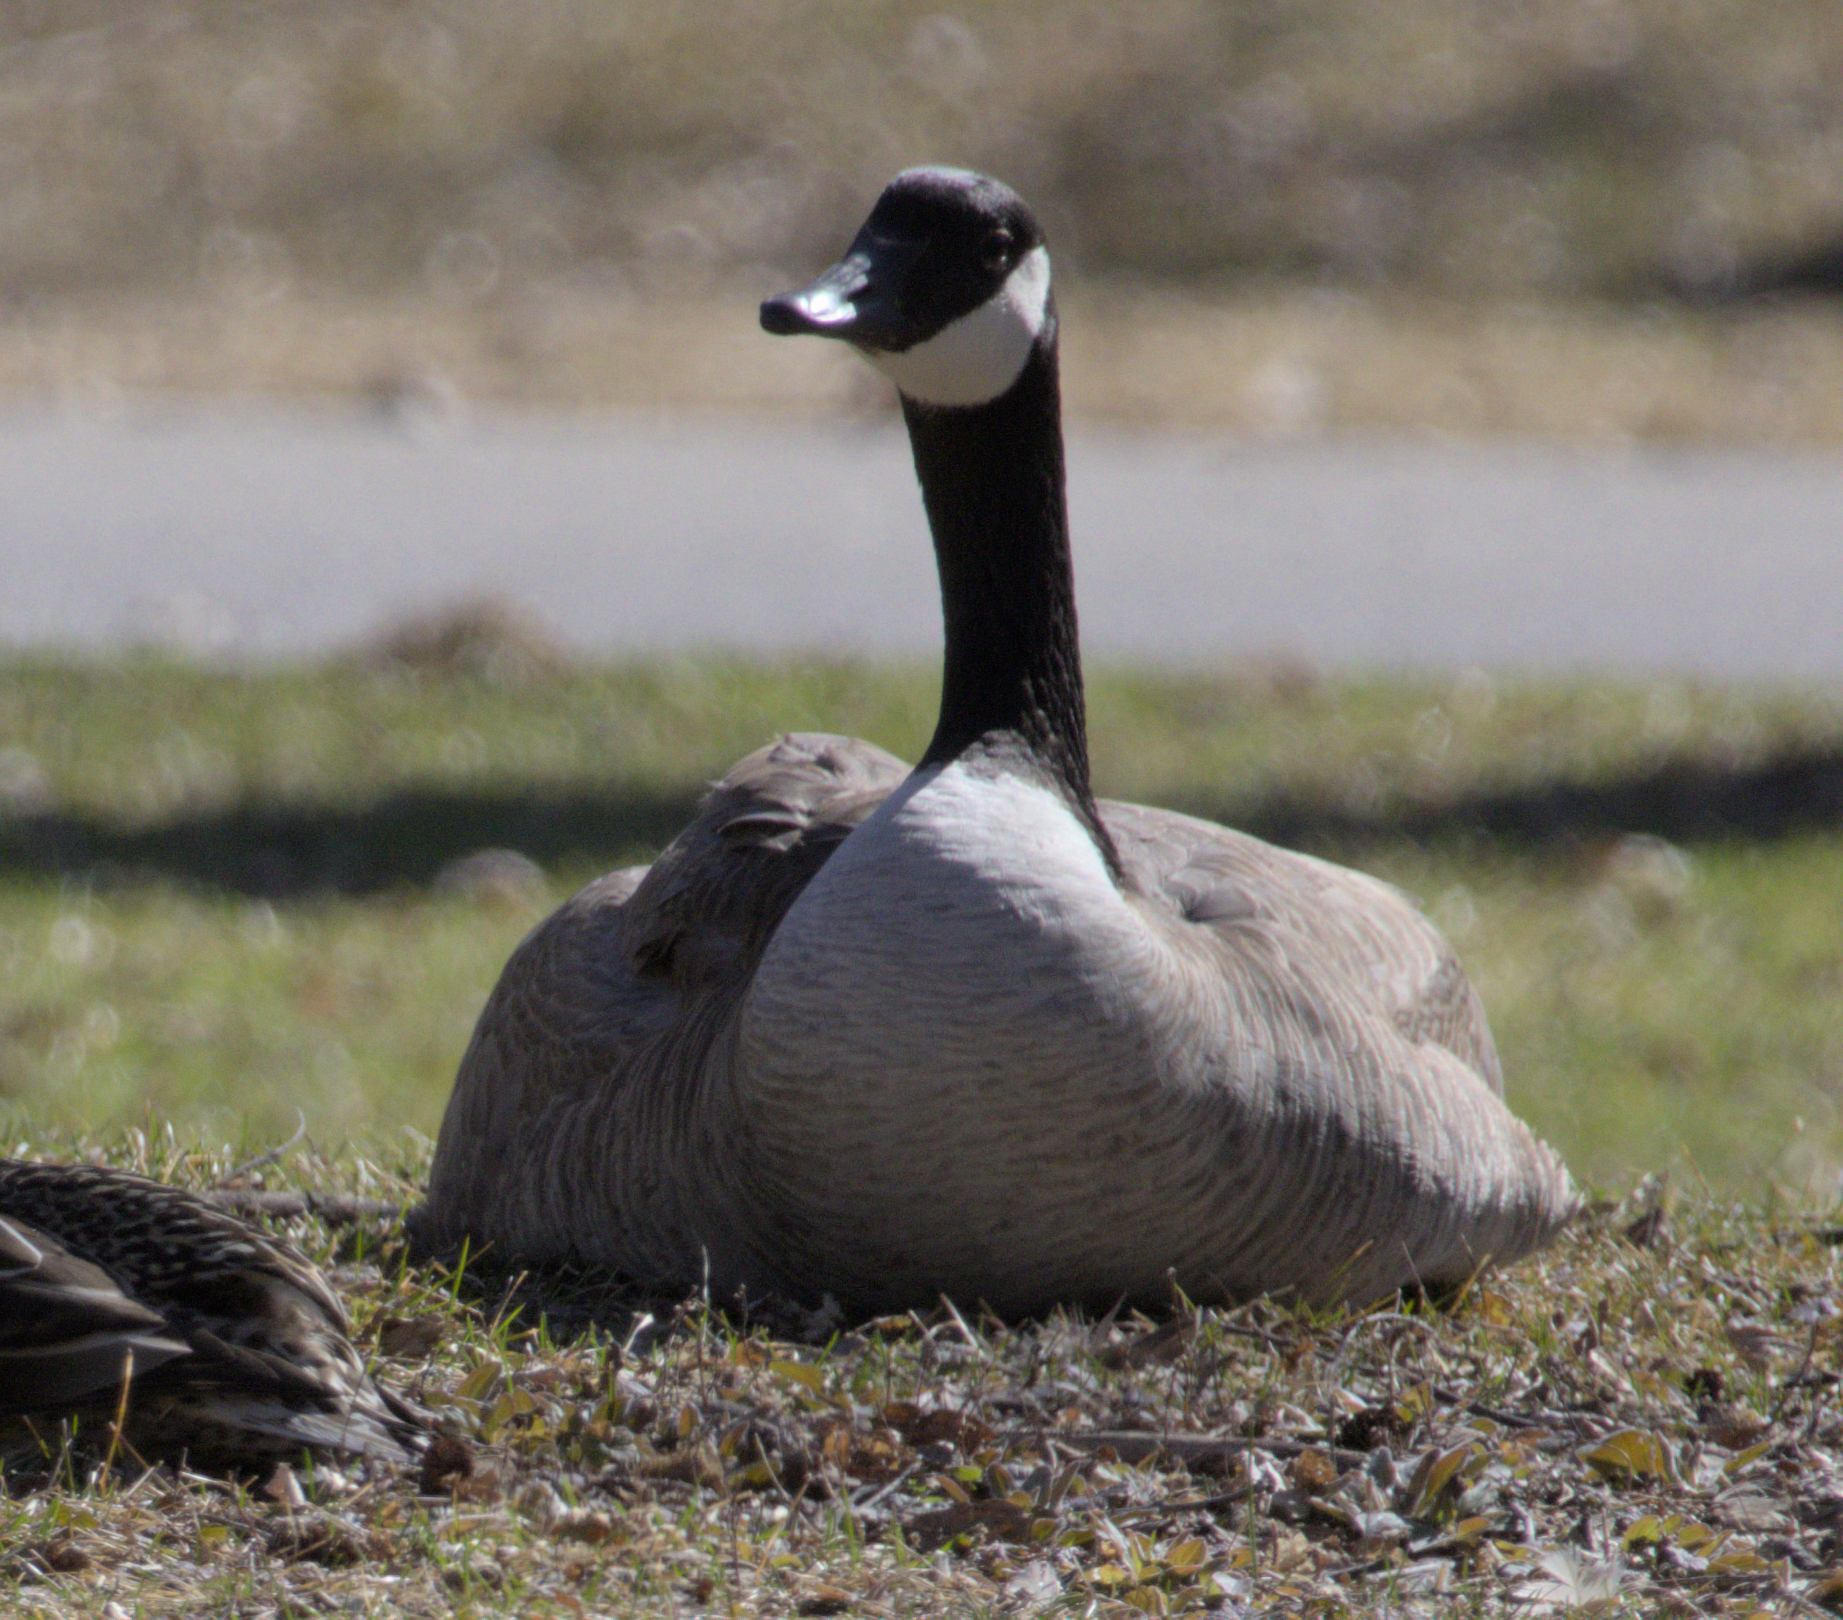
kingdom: Animalia
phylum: Chordata
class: Aves
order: Anseriformes
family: Anatidae
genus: Branta
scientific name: Branta canadensis
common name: Canada goose
